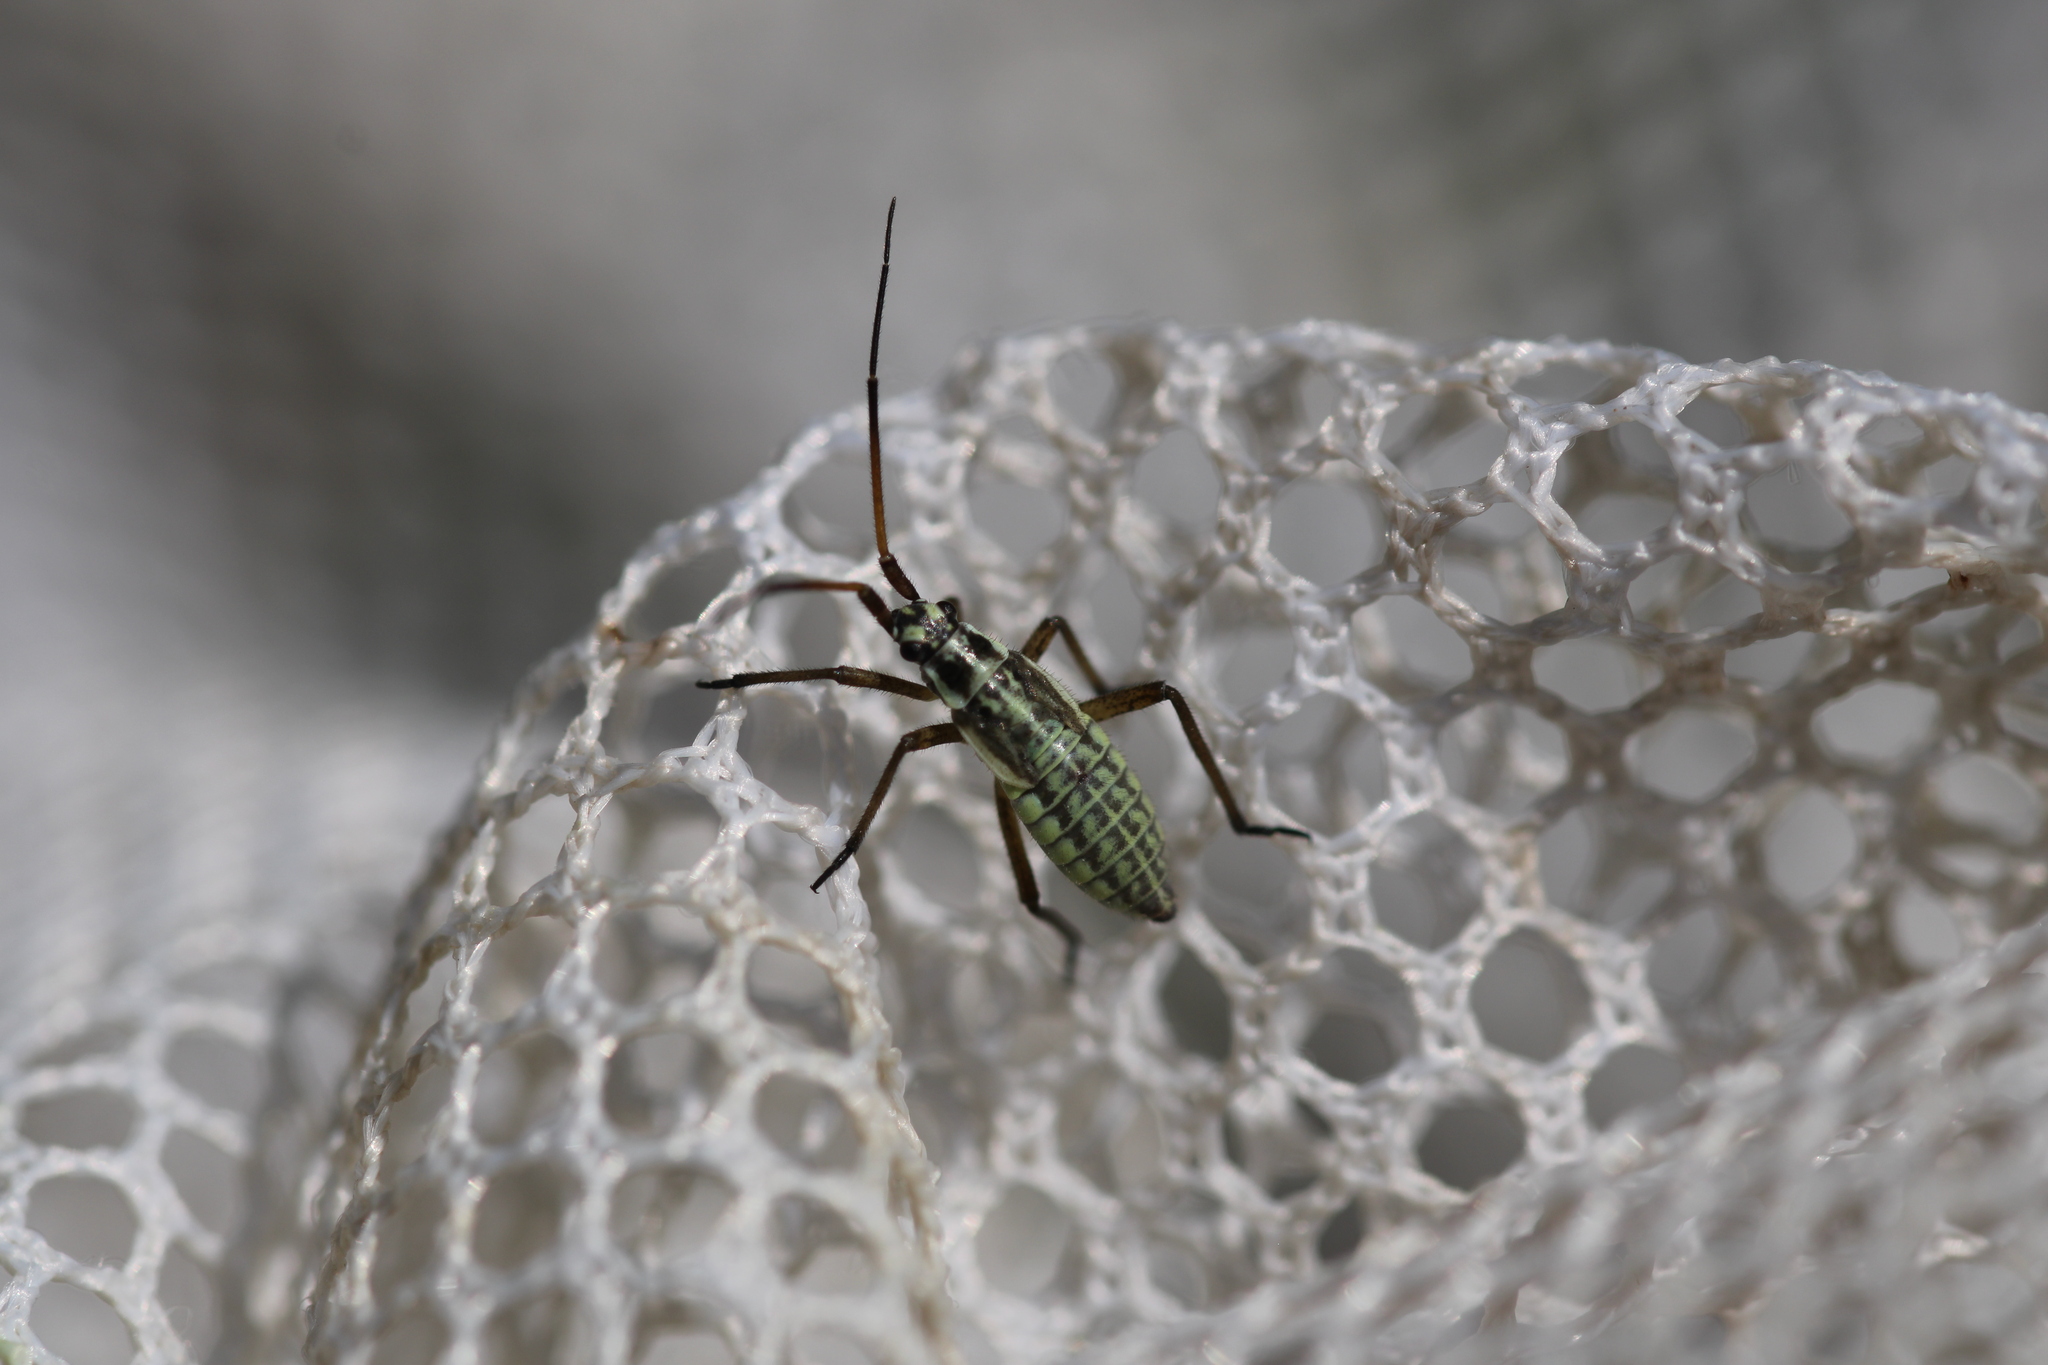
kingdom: Animalia
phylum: Arthropoda
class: Insecta
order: Hemiptera
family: Miridae
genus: Leptopterna
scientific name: Leptopterna dolabrata
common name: Meadow plant bug
